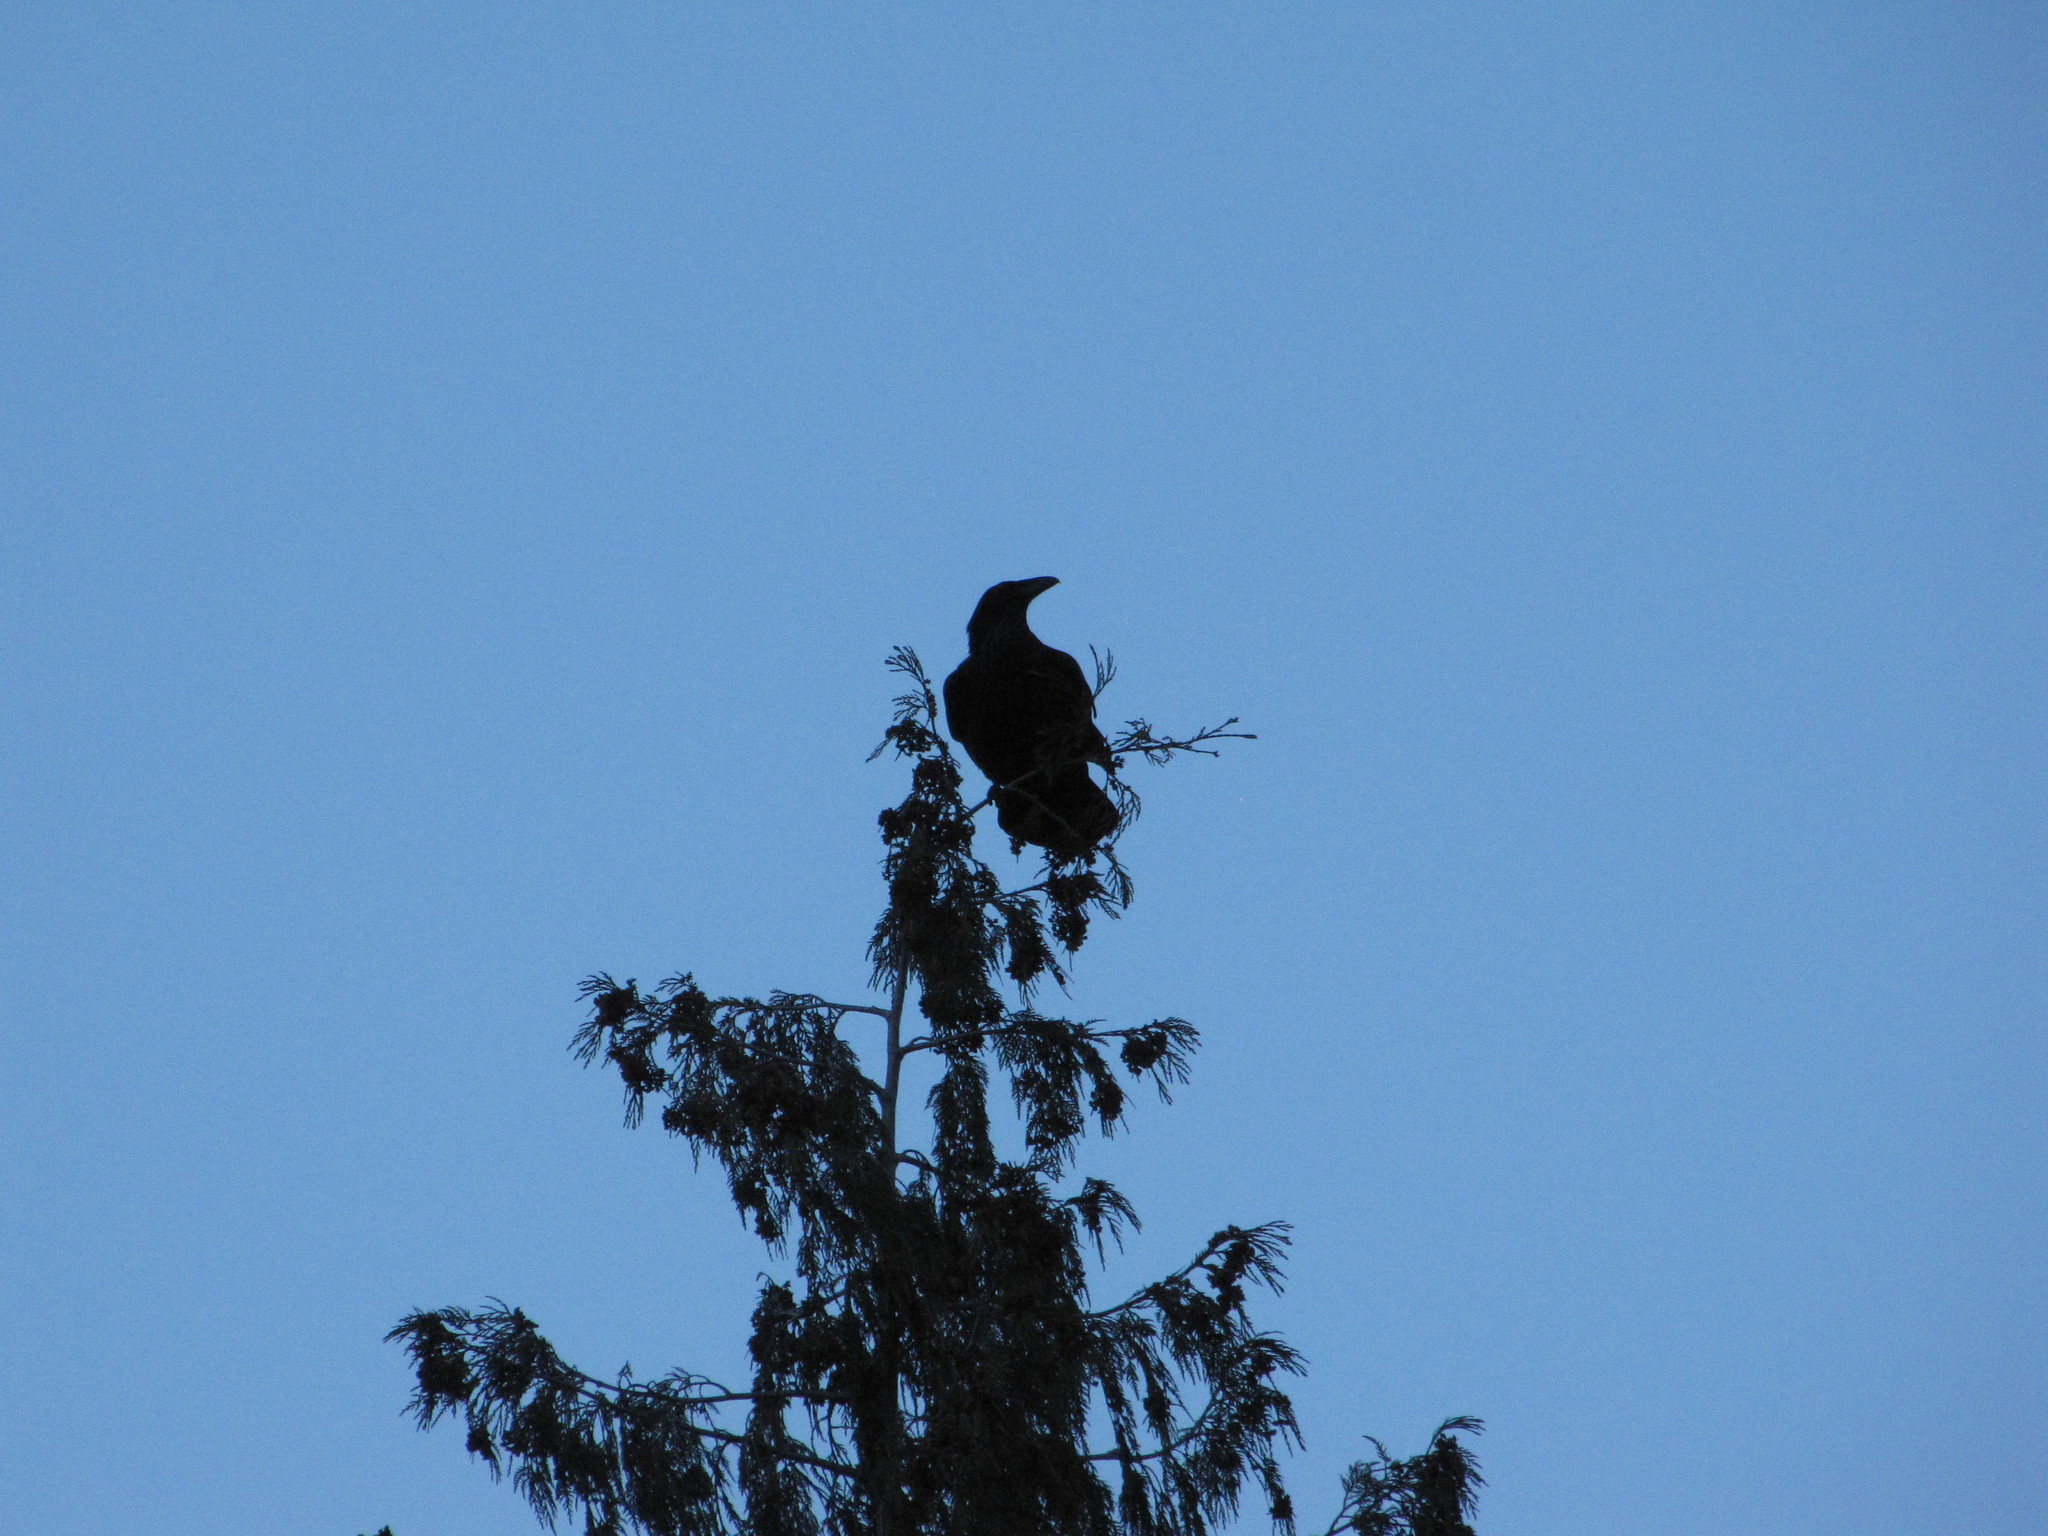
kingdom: Animalia
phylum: Chordata
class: Aves
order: Passeriformes
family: Corvidae
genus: Corvus
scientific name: Corvus corax
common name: Common raven
